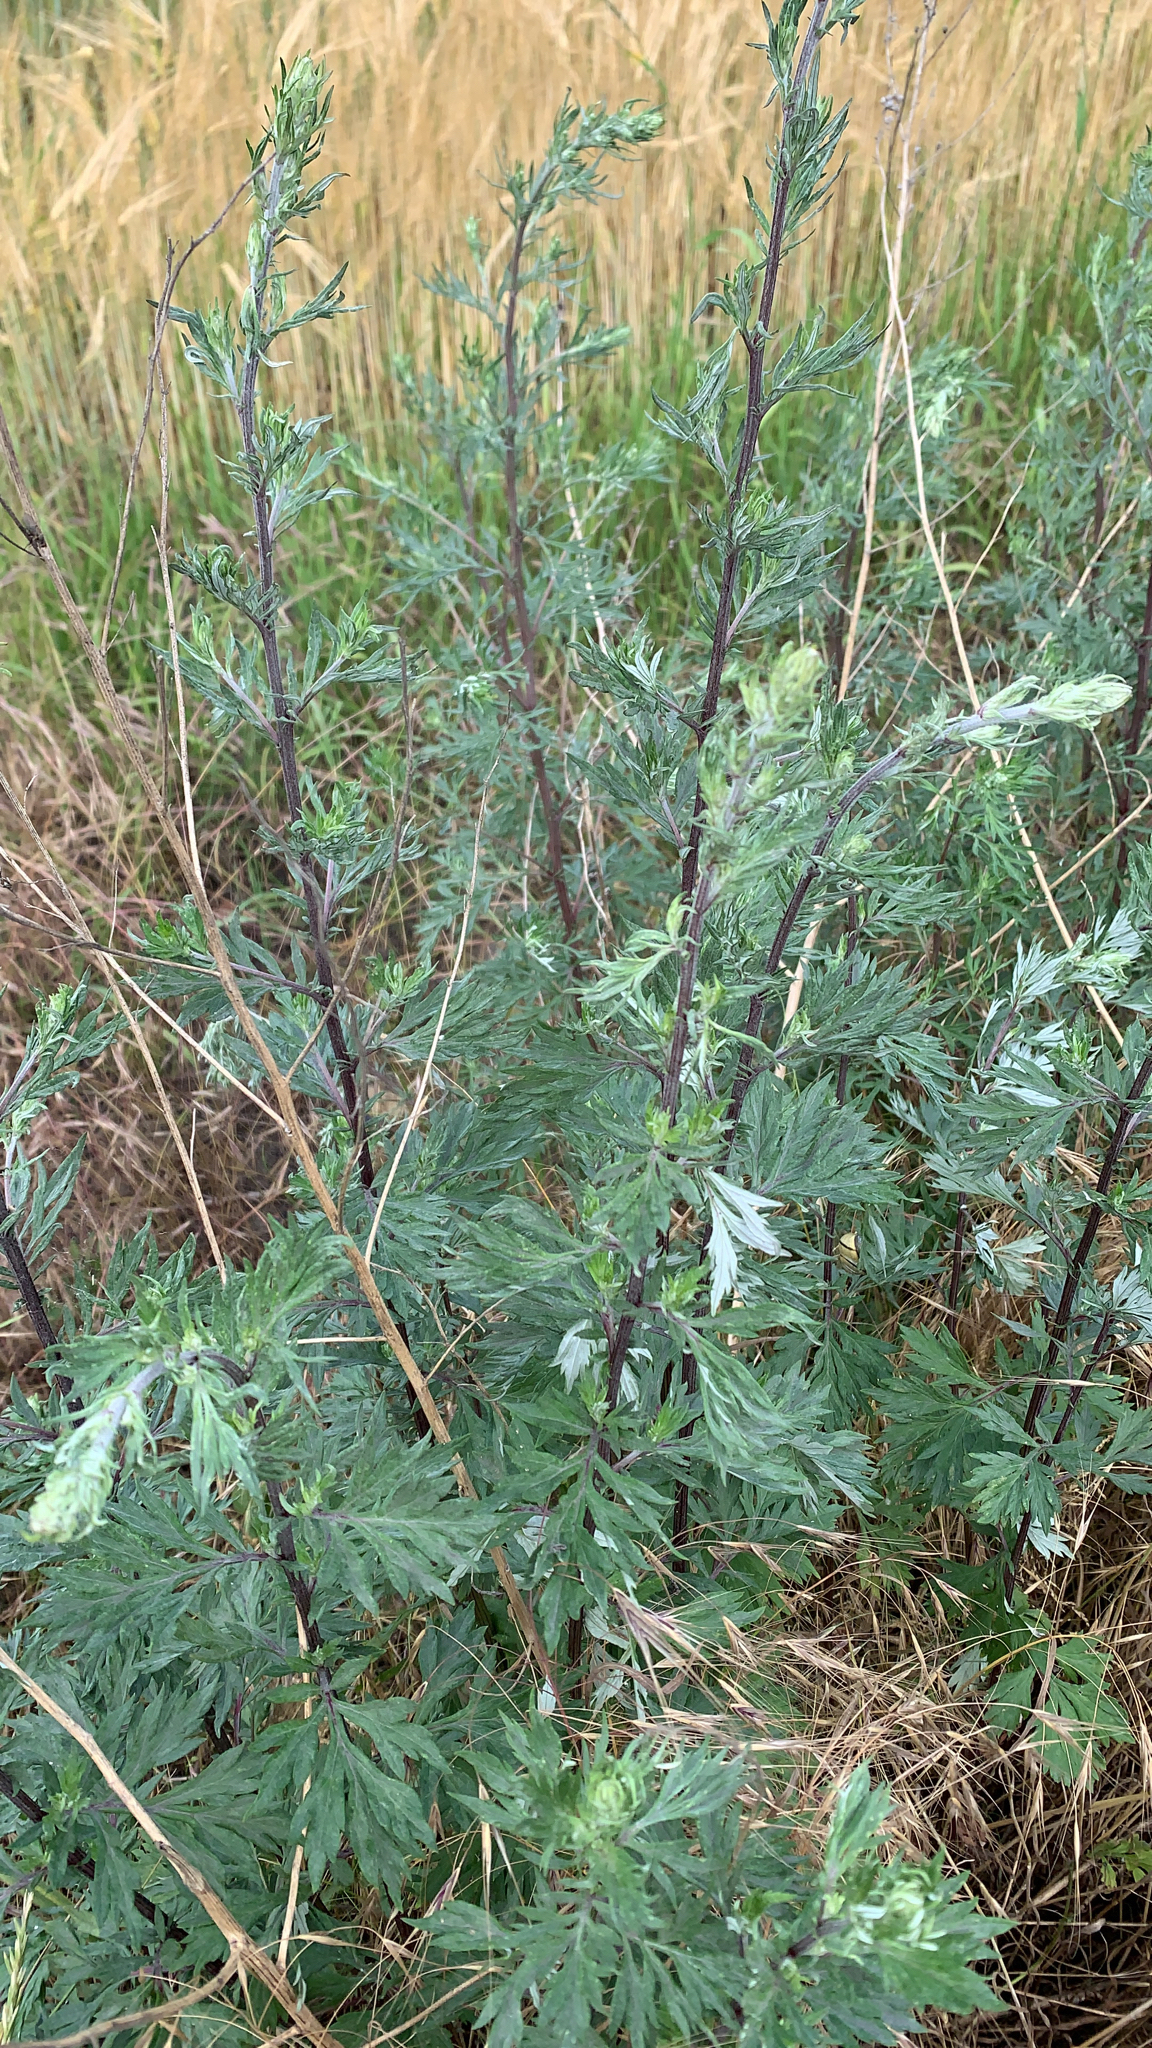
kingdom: Plantae
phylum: Tracheophyta
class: Magnoliopsida
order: Asterales
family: Asteraceae
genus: Artemisia
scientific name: Artemisia vulgaris
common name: Mugwort
